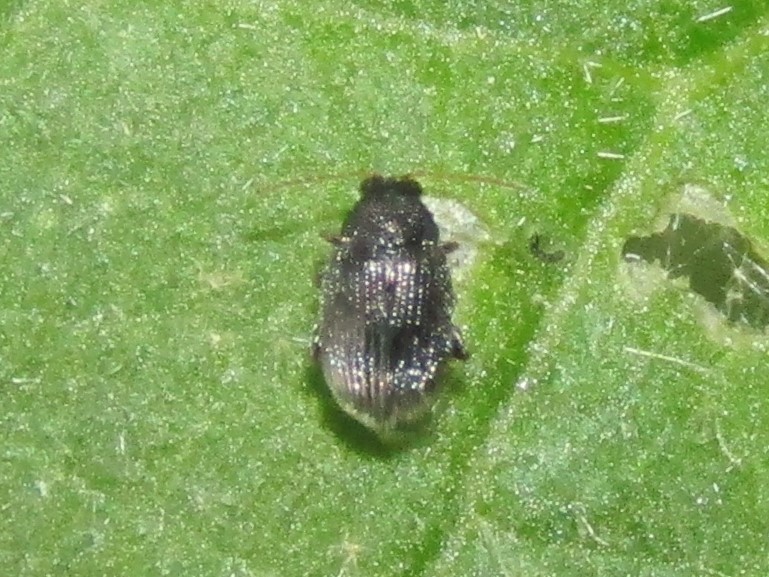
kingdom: Animalia
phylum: Arthropoda
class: Insecta
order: Coleoptera
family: Chrysomelidae
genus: Epitrix
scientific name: Epitrix fuscula
